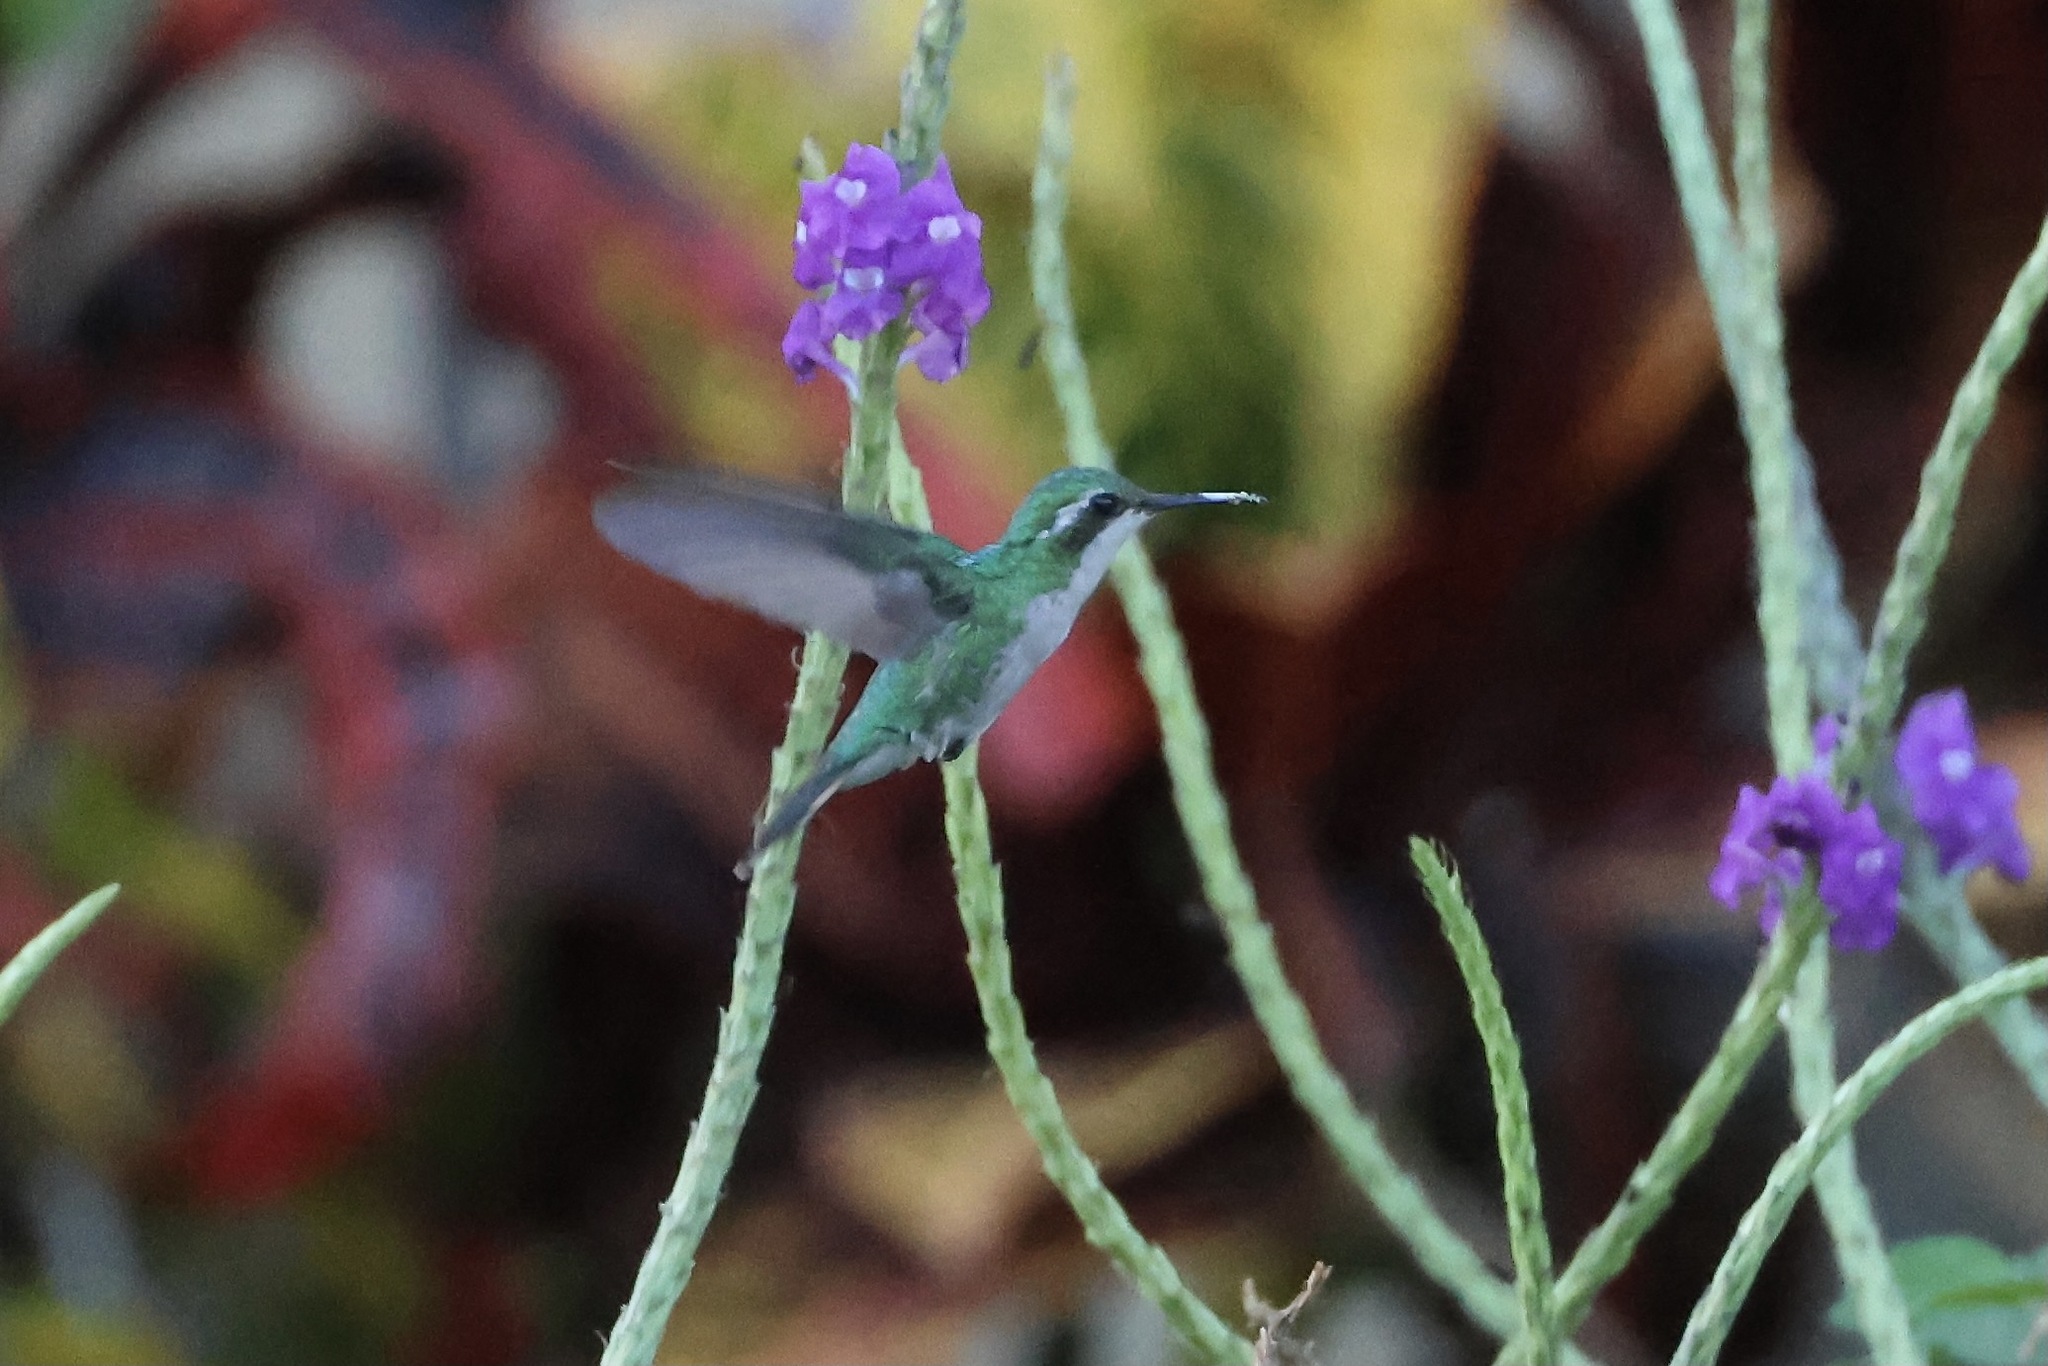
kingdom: Animalia
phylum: Chordata
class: Aves
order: Apodiformes
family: Trochilidae
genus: Cynanthus
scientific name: Cynanthus canivetii
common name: Canivet's emerald
